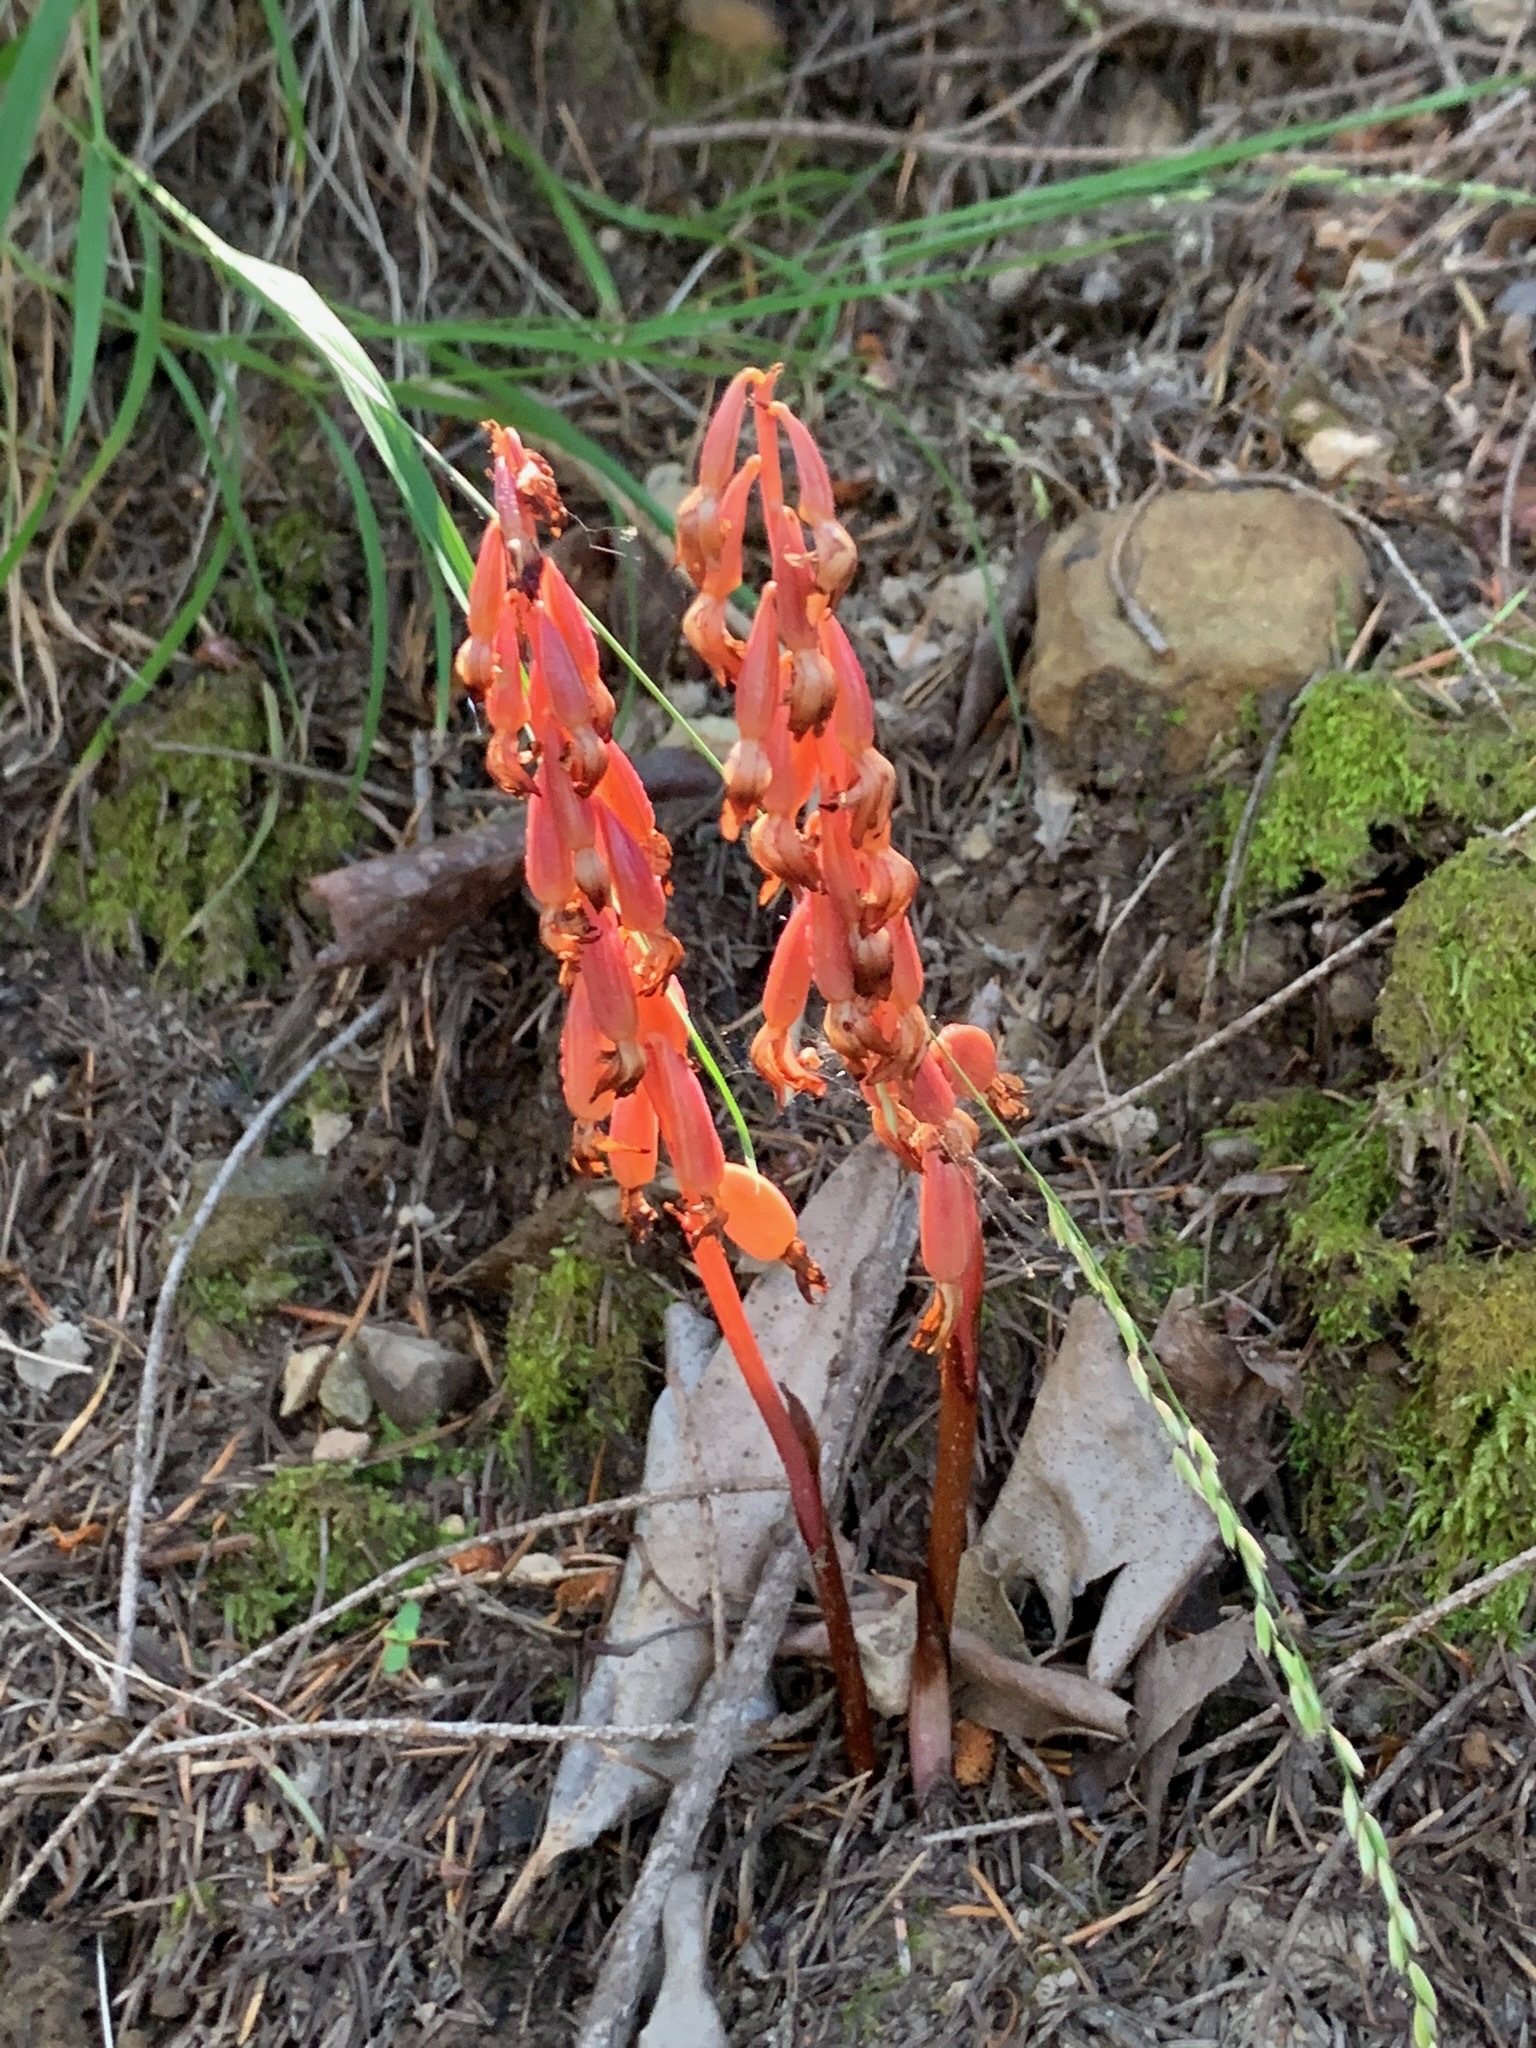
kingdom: Plantae
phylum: Tracheophyta
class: Liliopsida
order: Asparagales
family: Orchidaceae
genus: Corallorhiza
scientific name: Corallorhiza maculata
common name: Spotted coralroot
